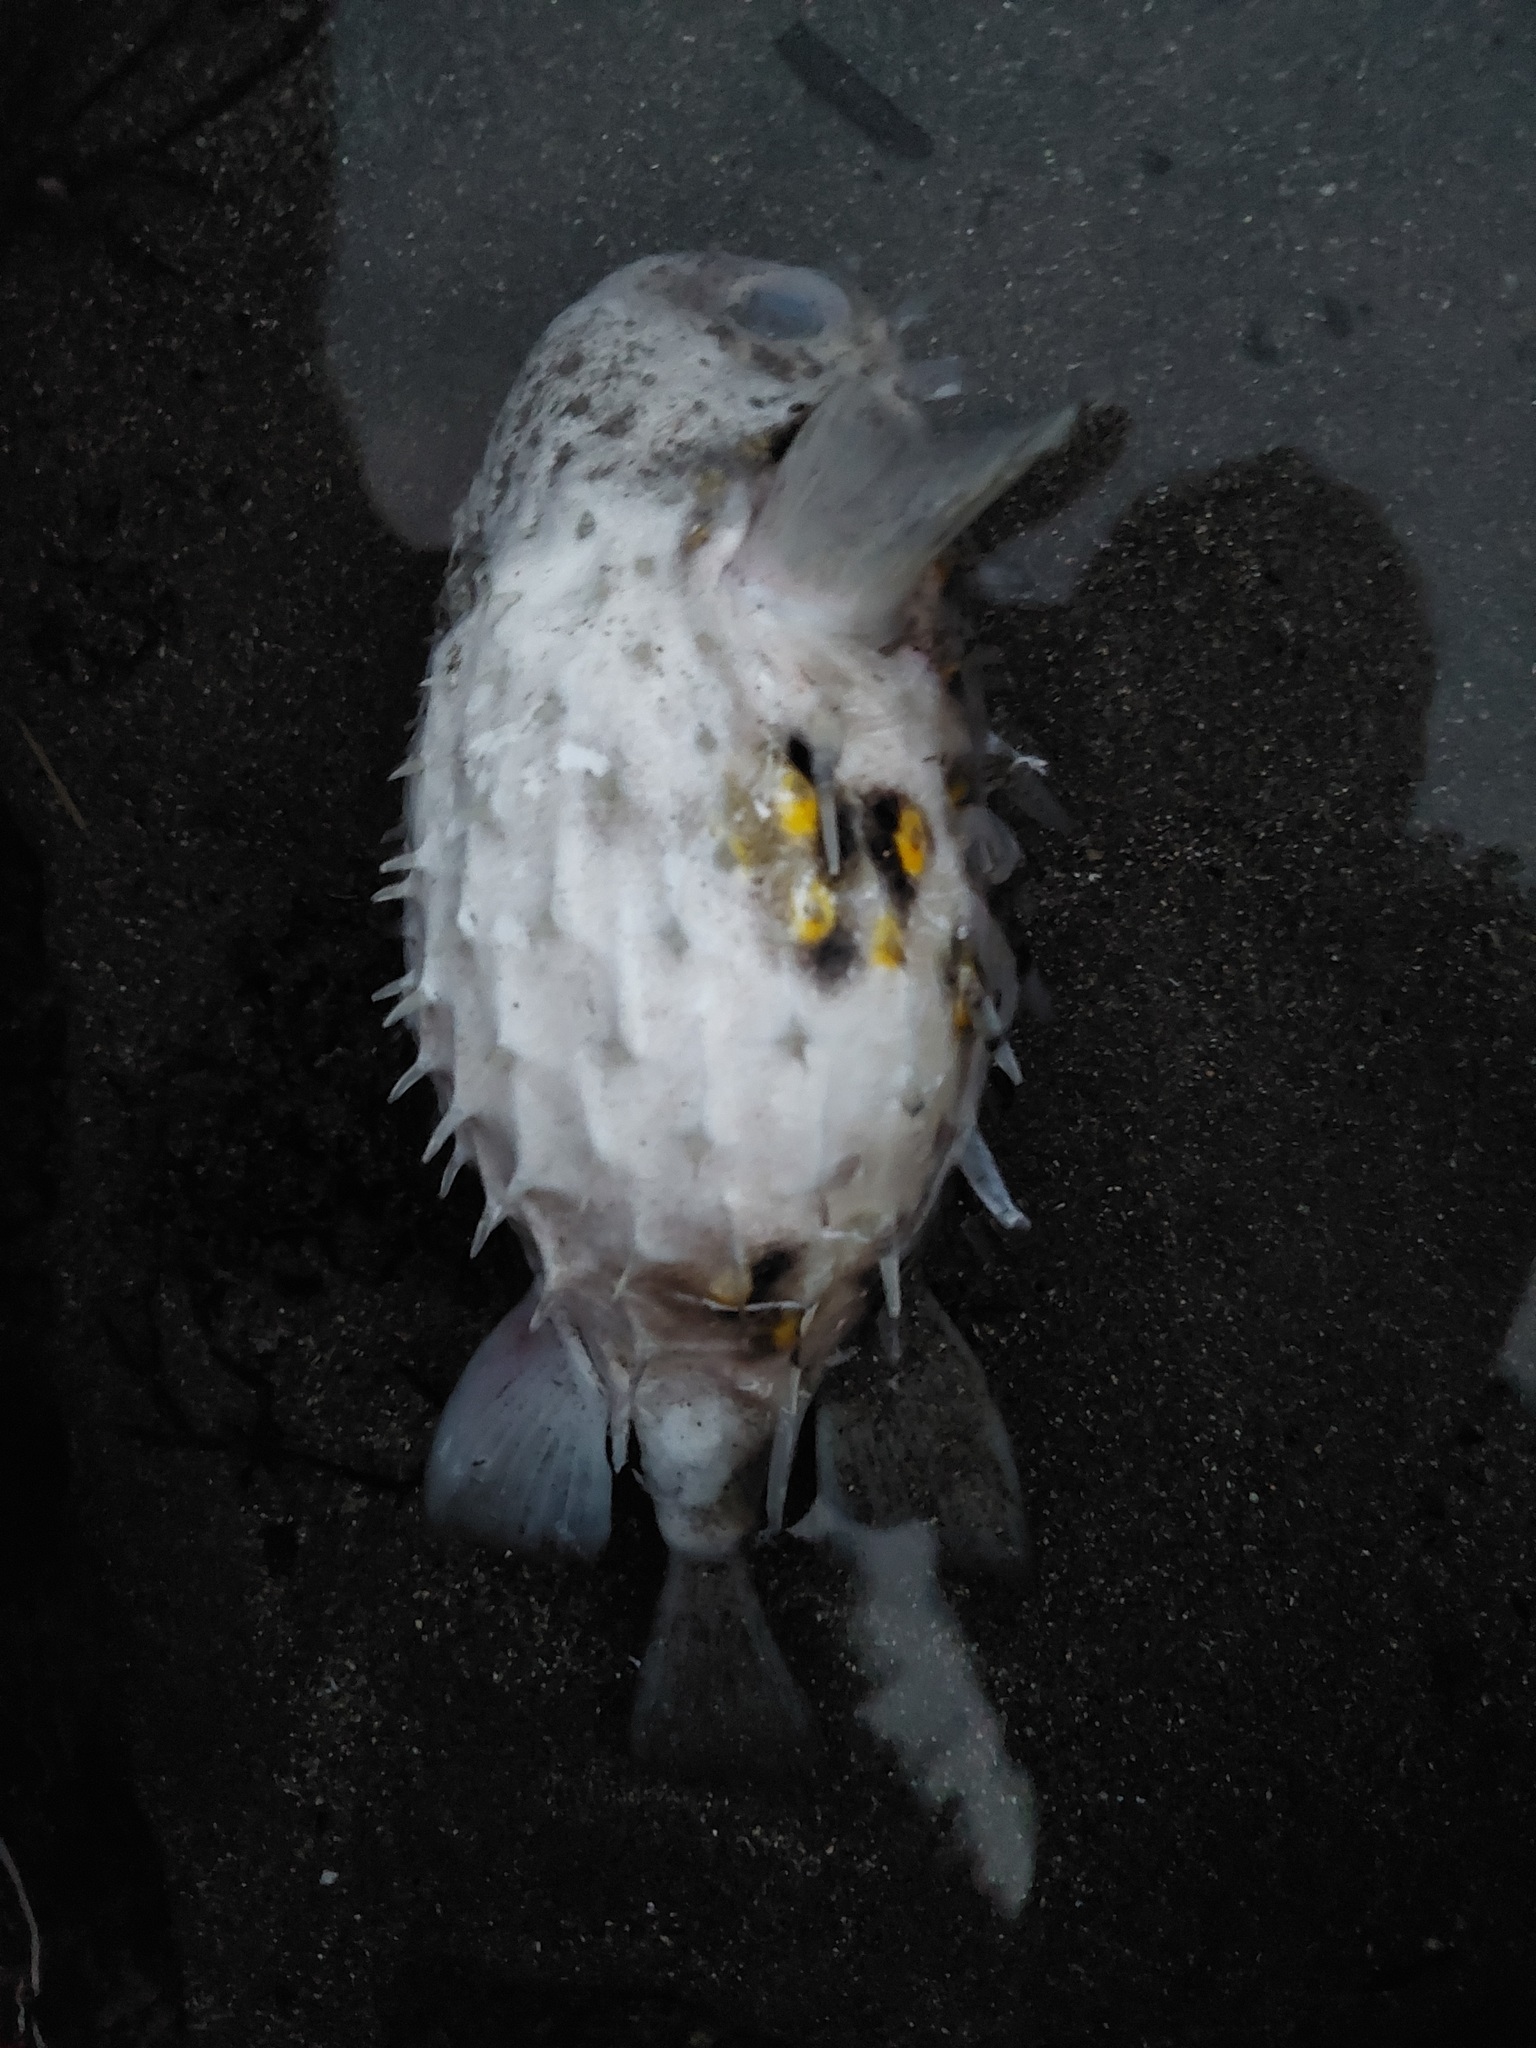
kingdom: Animalia
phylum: Chordata
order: Tetraodontiformes
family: Diodontidae
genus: Allomycterus
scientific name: Allomycterus pilatus
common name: No common name
